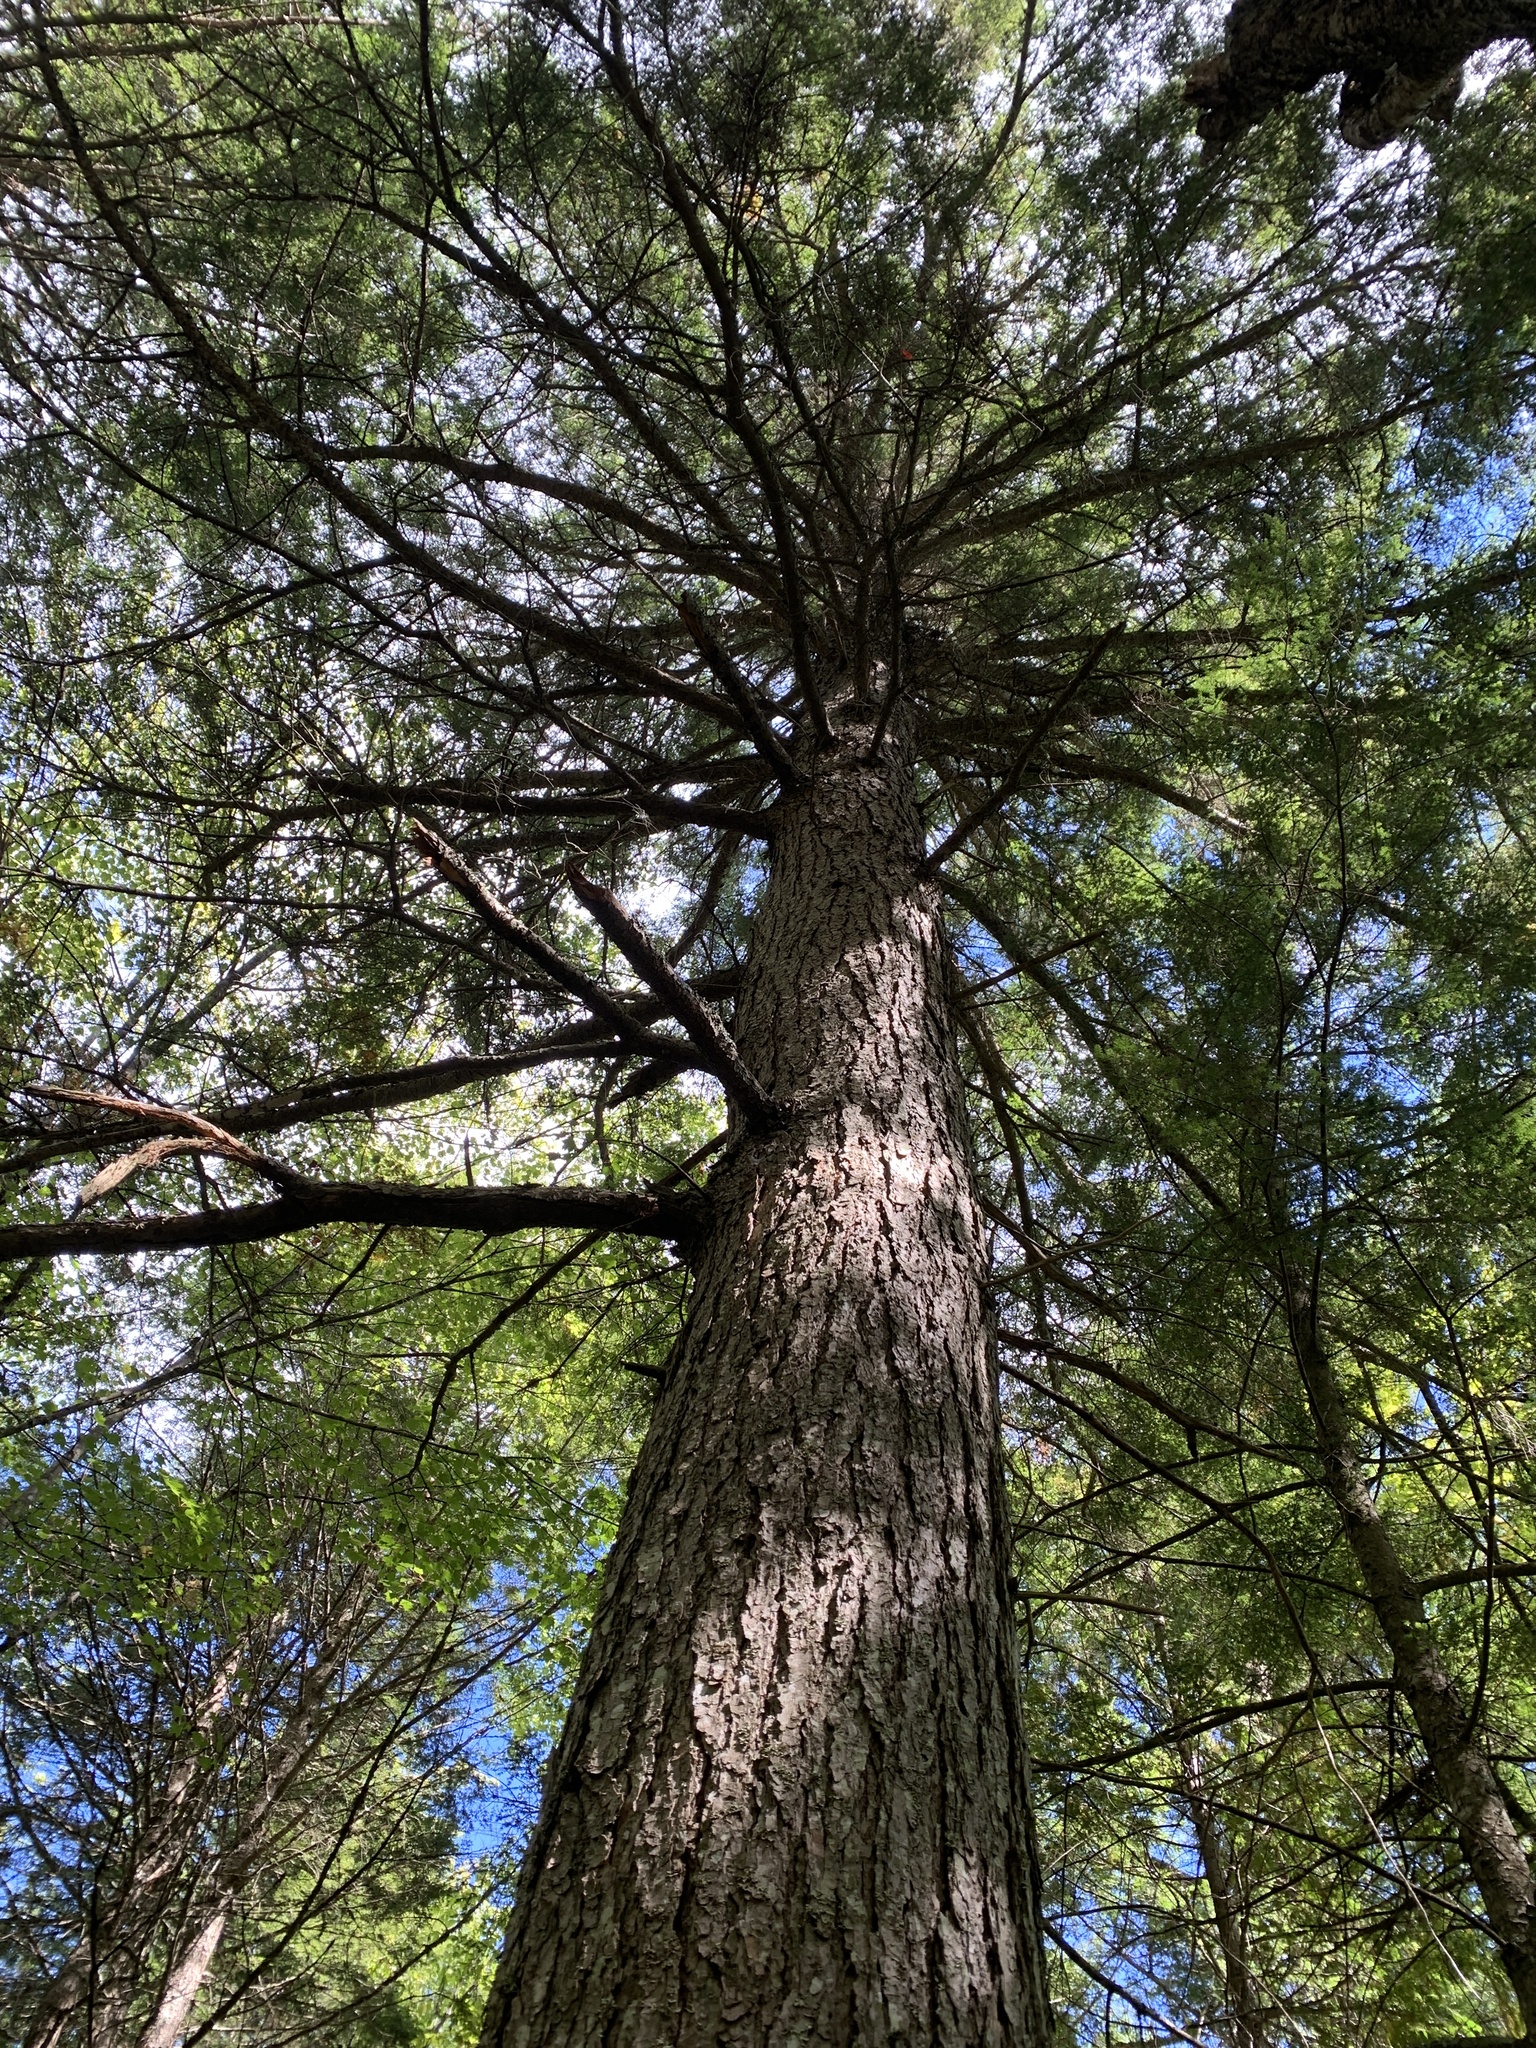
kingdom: Plantae
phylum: Tracheophyta
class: Pinopsida
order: Pinales
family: Pinaceae
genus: Tsuga
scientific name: Tsuga canadensis
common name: Eastern hemlock
